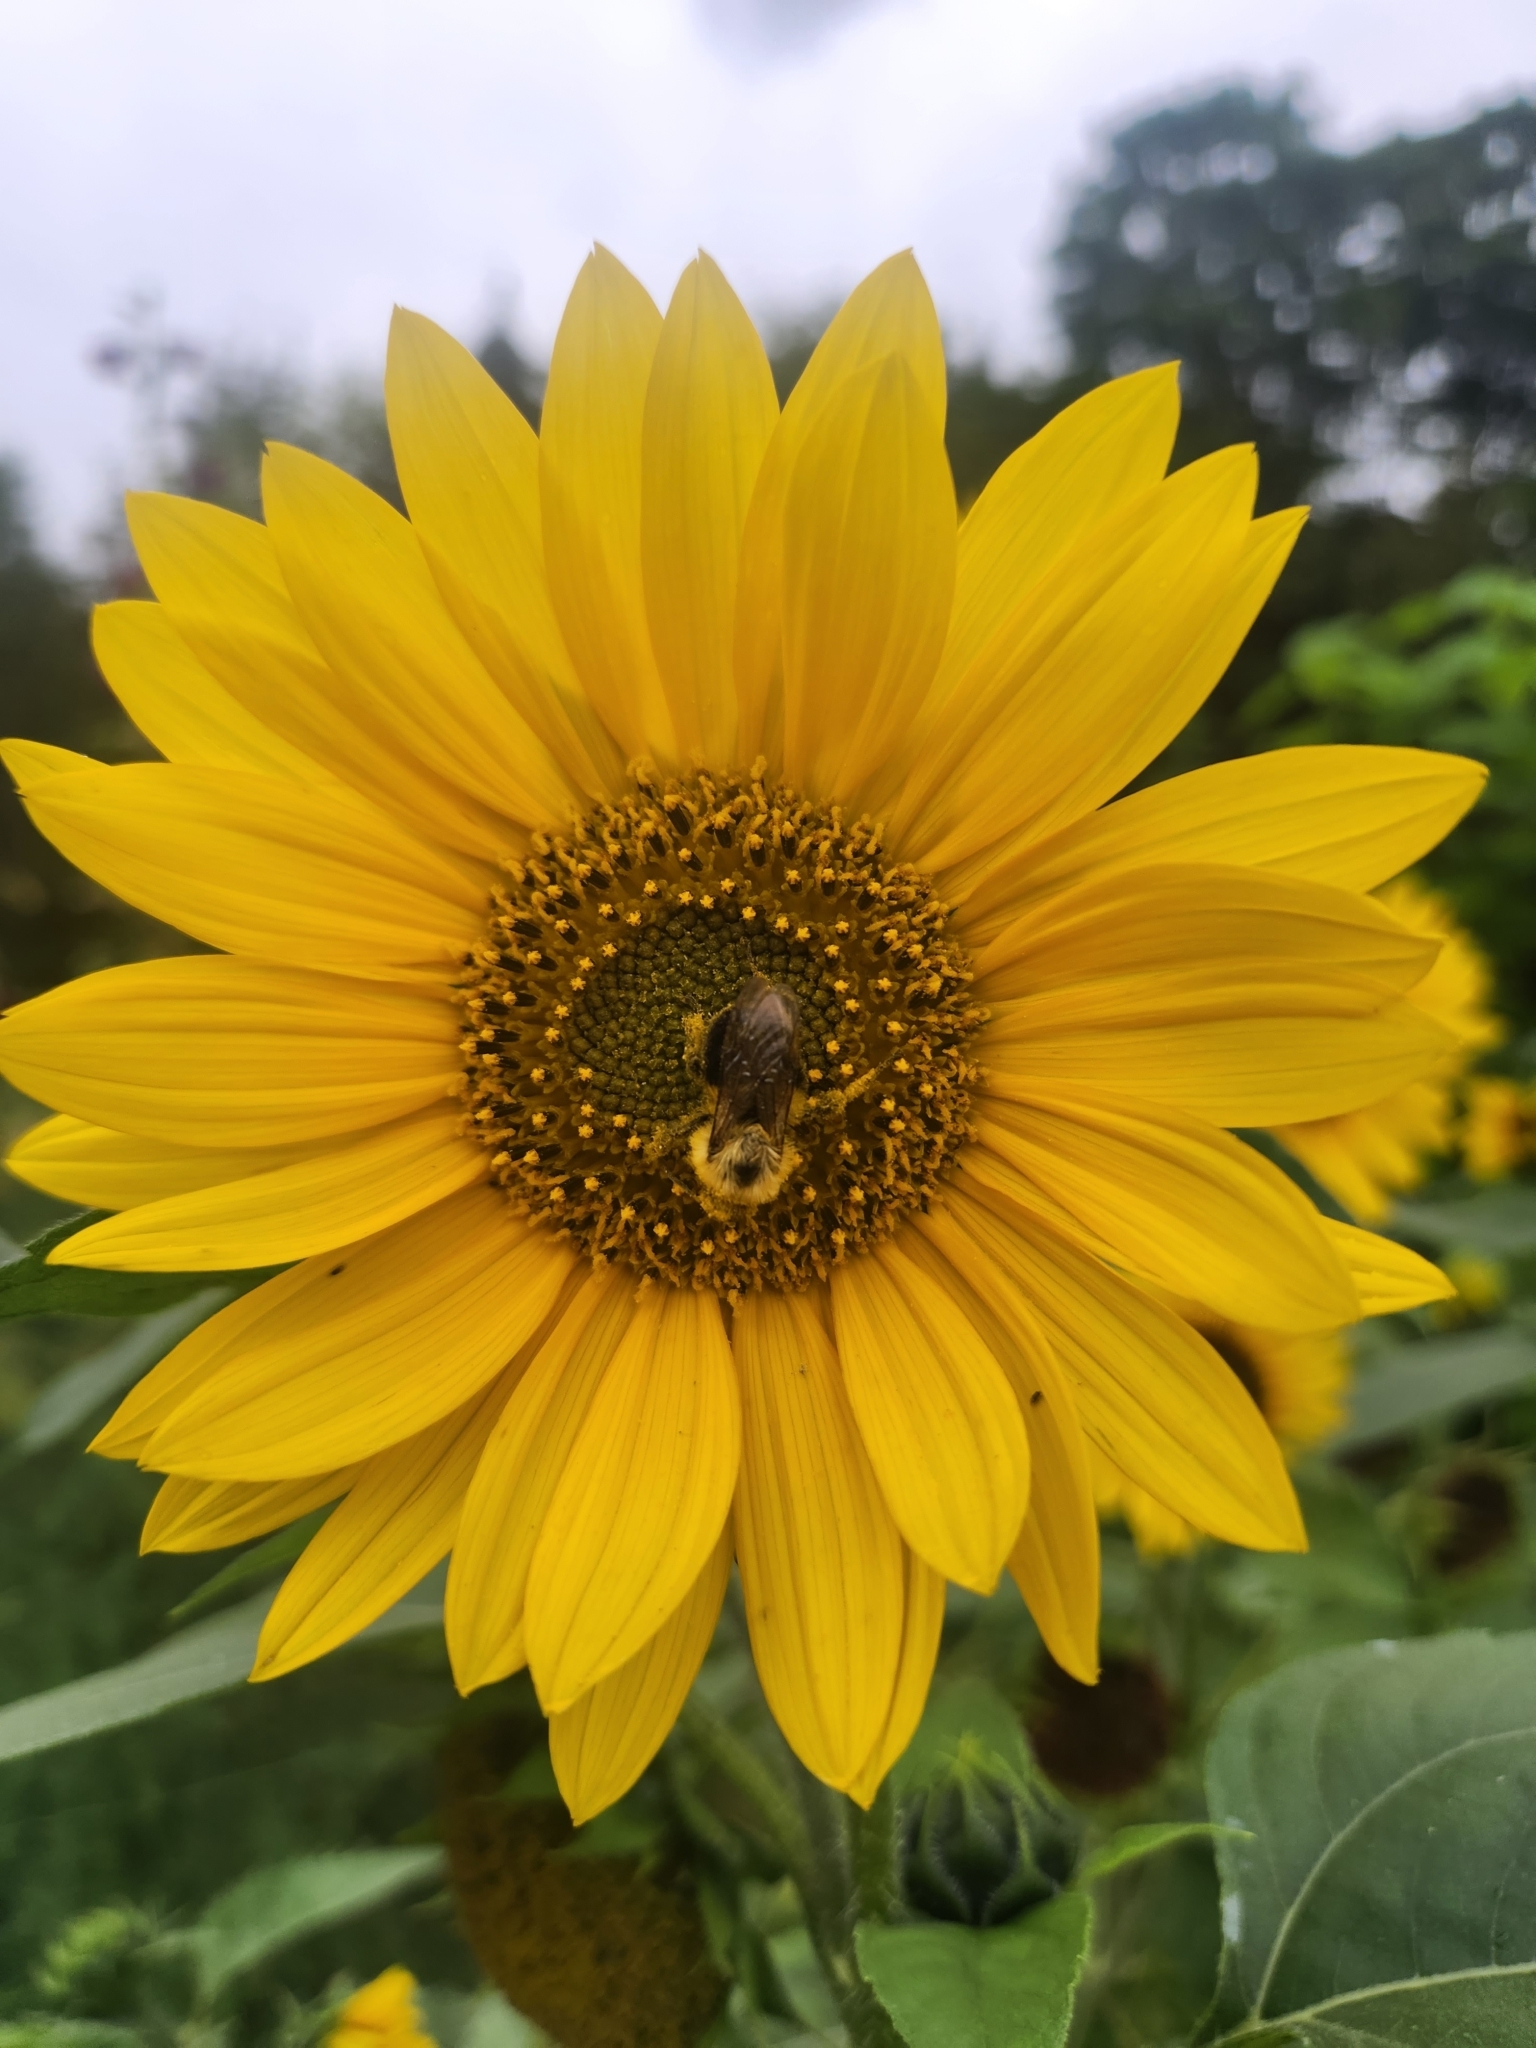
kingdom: Animalia
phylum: Arthropoda
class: Insecta
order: Hymenoptera
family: Apidae
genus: Bombus
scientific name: Bombus impatiens
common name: Common eastern bumble bee
